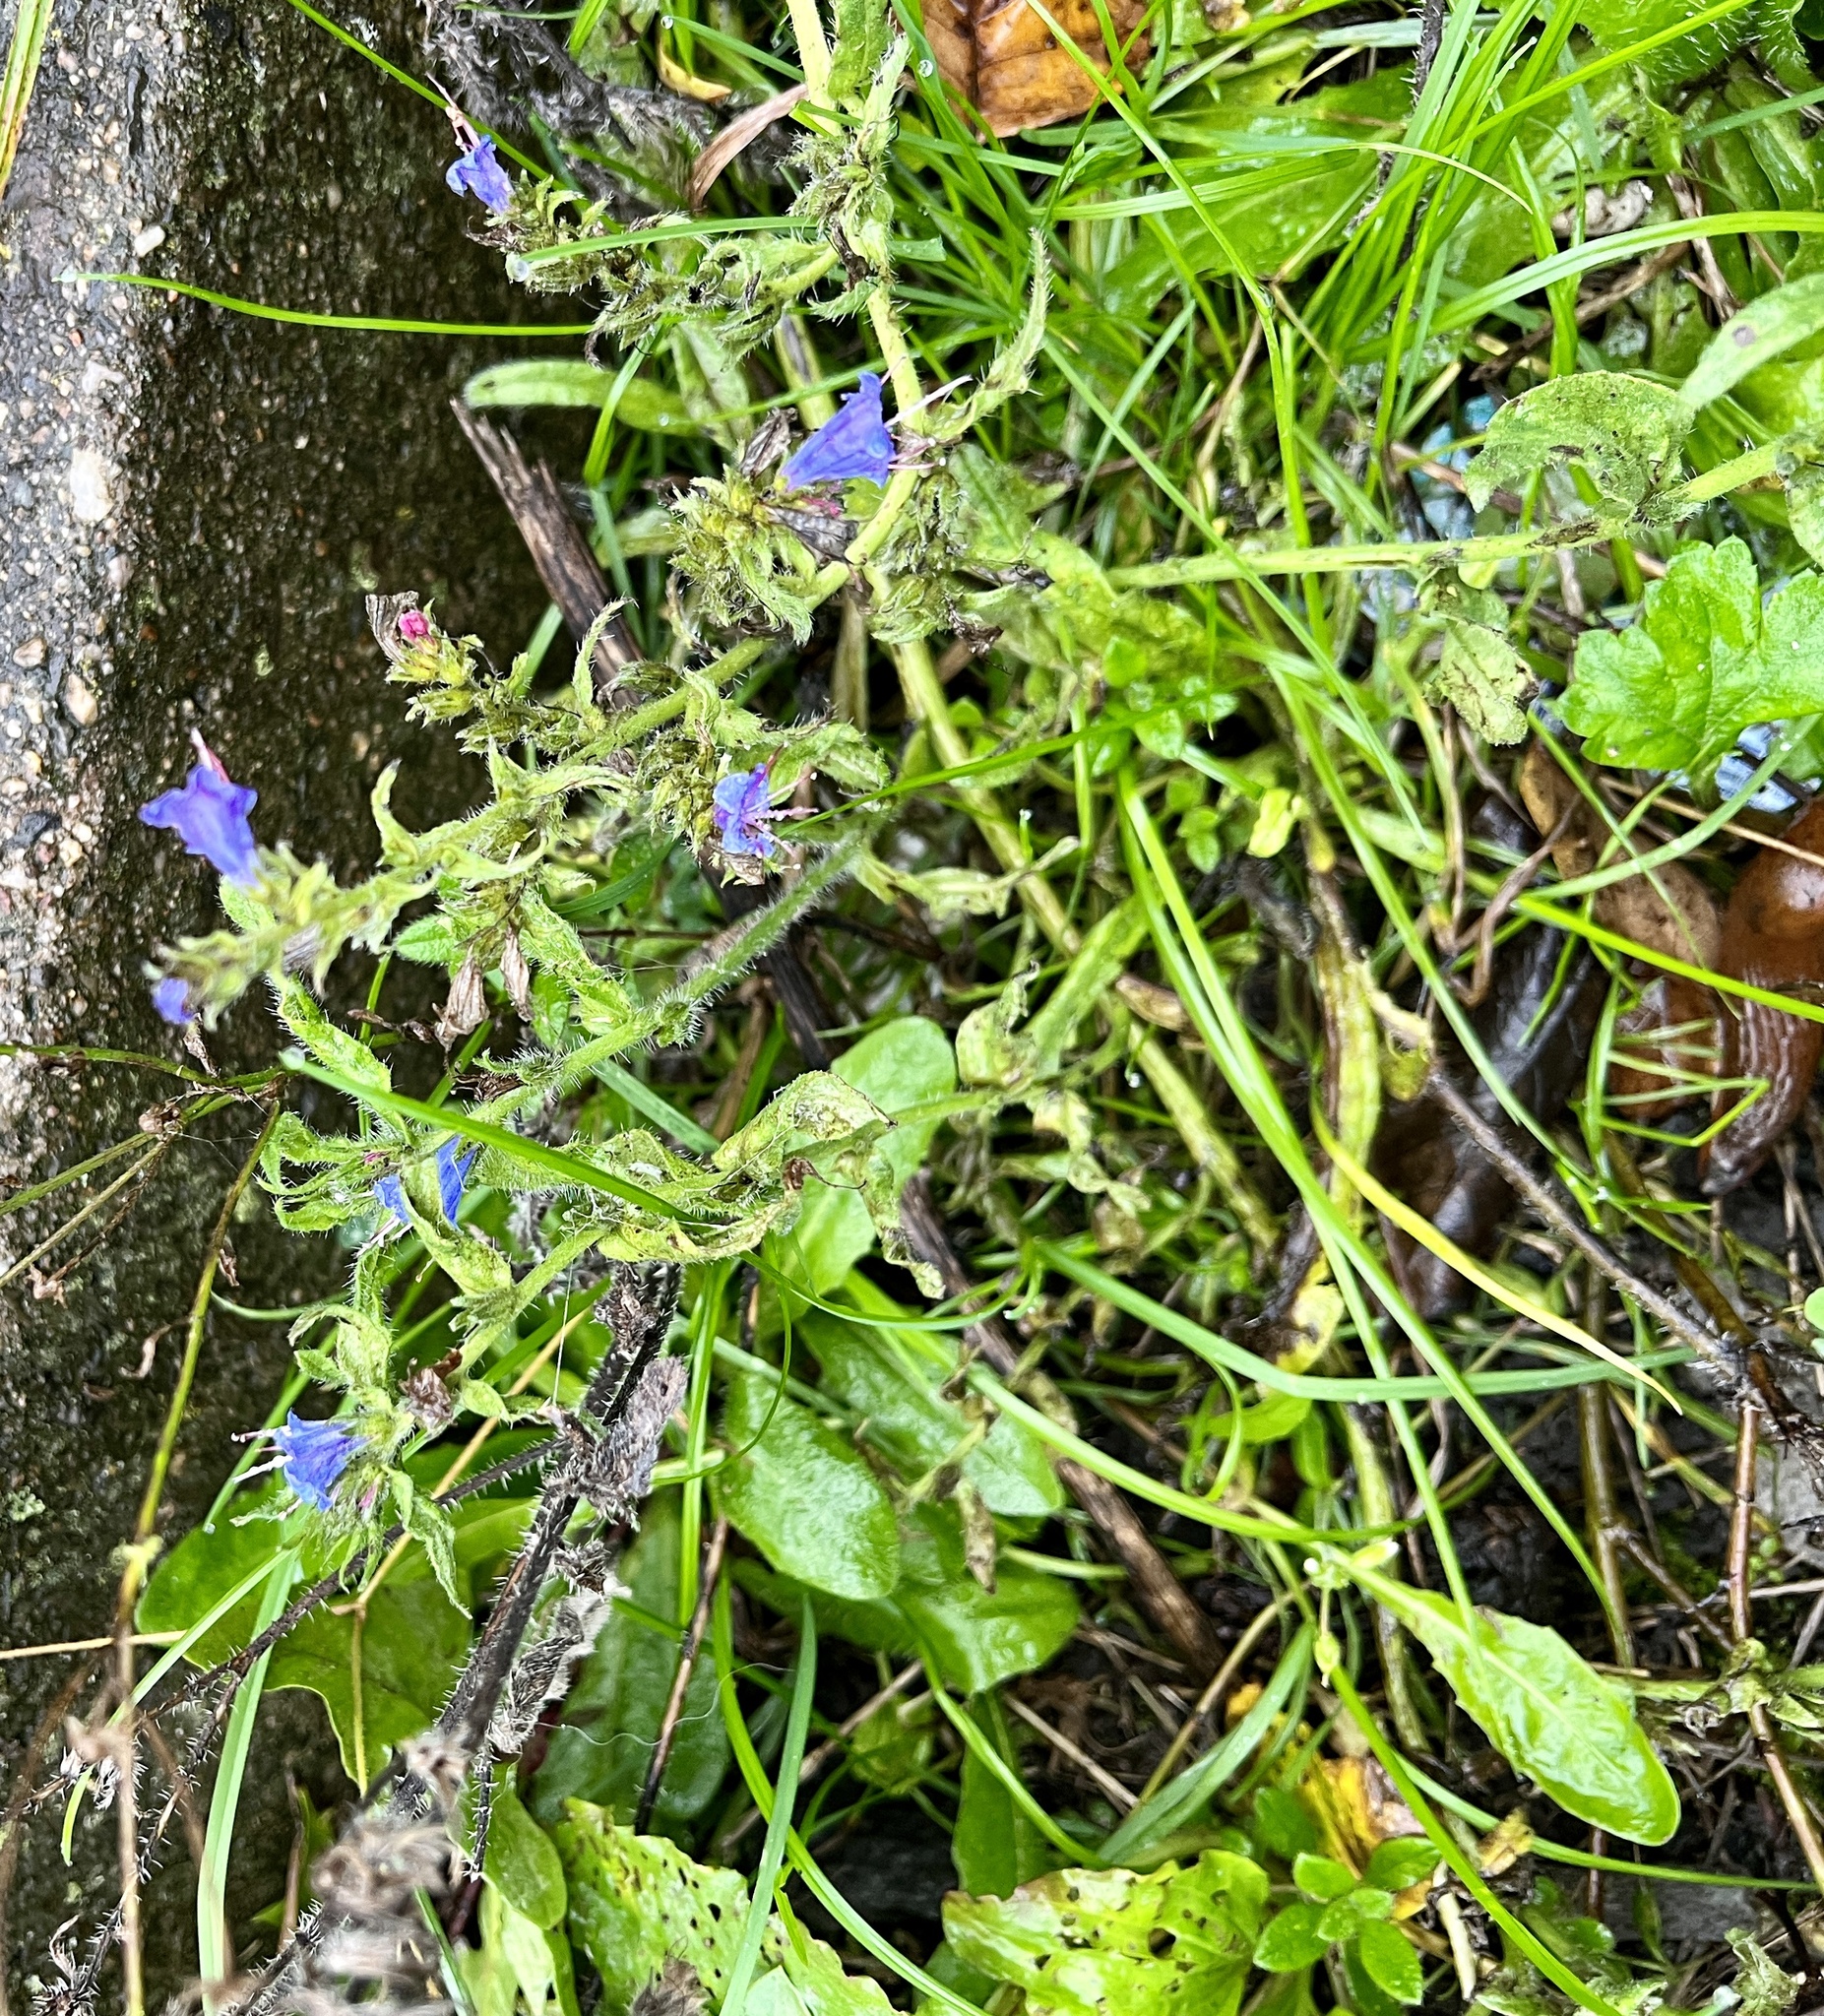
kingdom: Plantae
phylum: Tracheophyta
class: Magnoliopsida
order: Boraginales
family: Boraginaceae
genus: Echium
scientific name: Echium vulgare
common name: Common viper's bugloss
